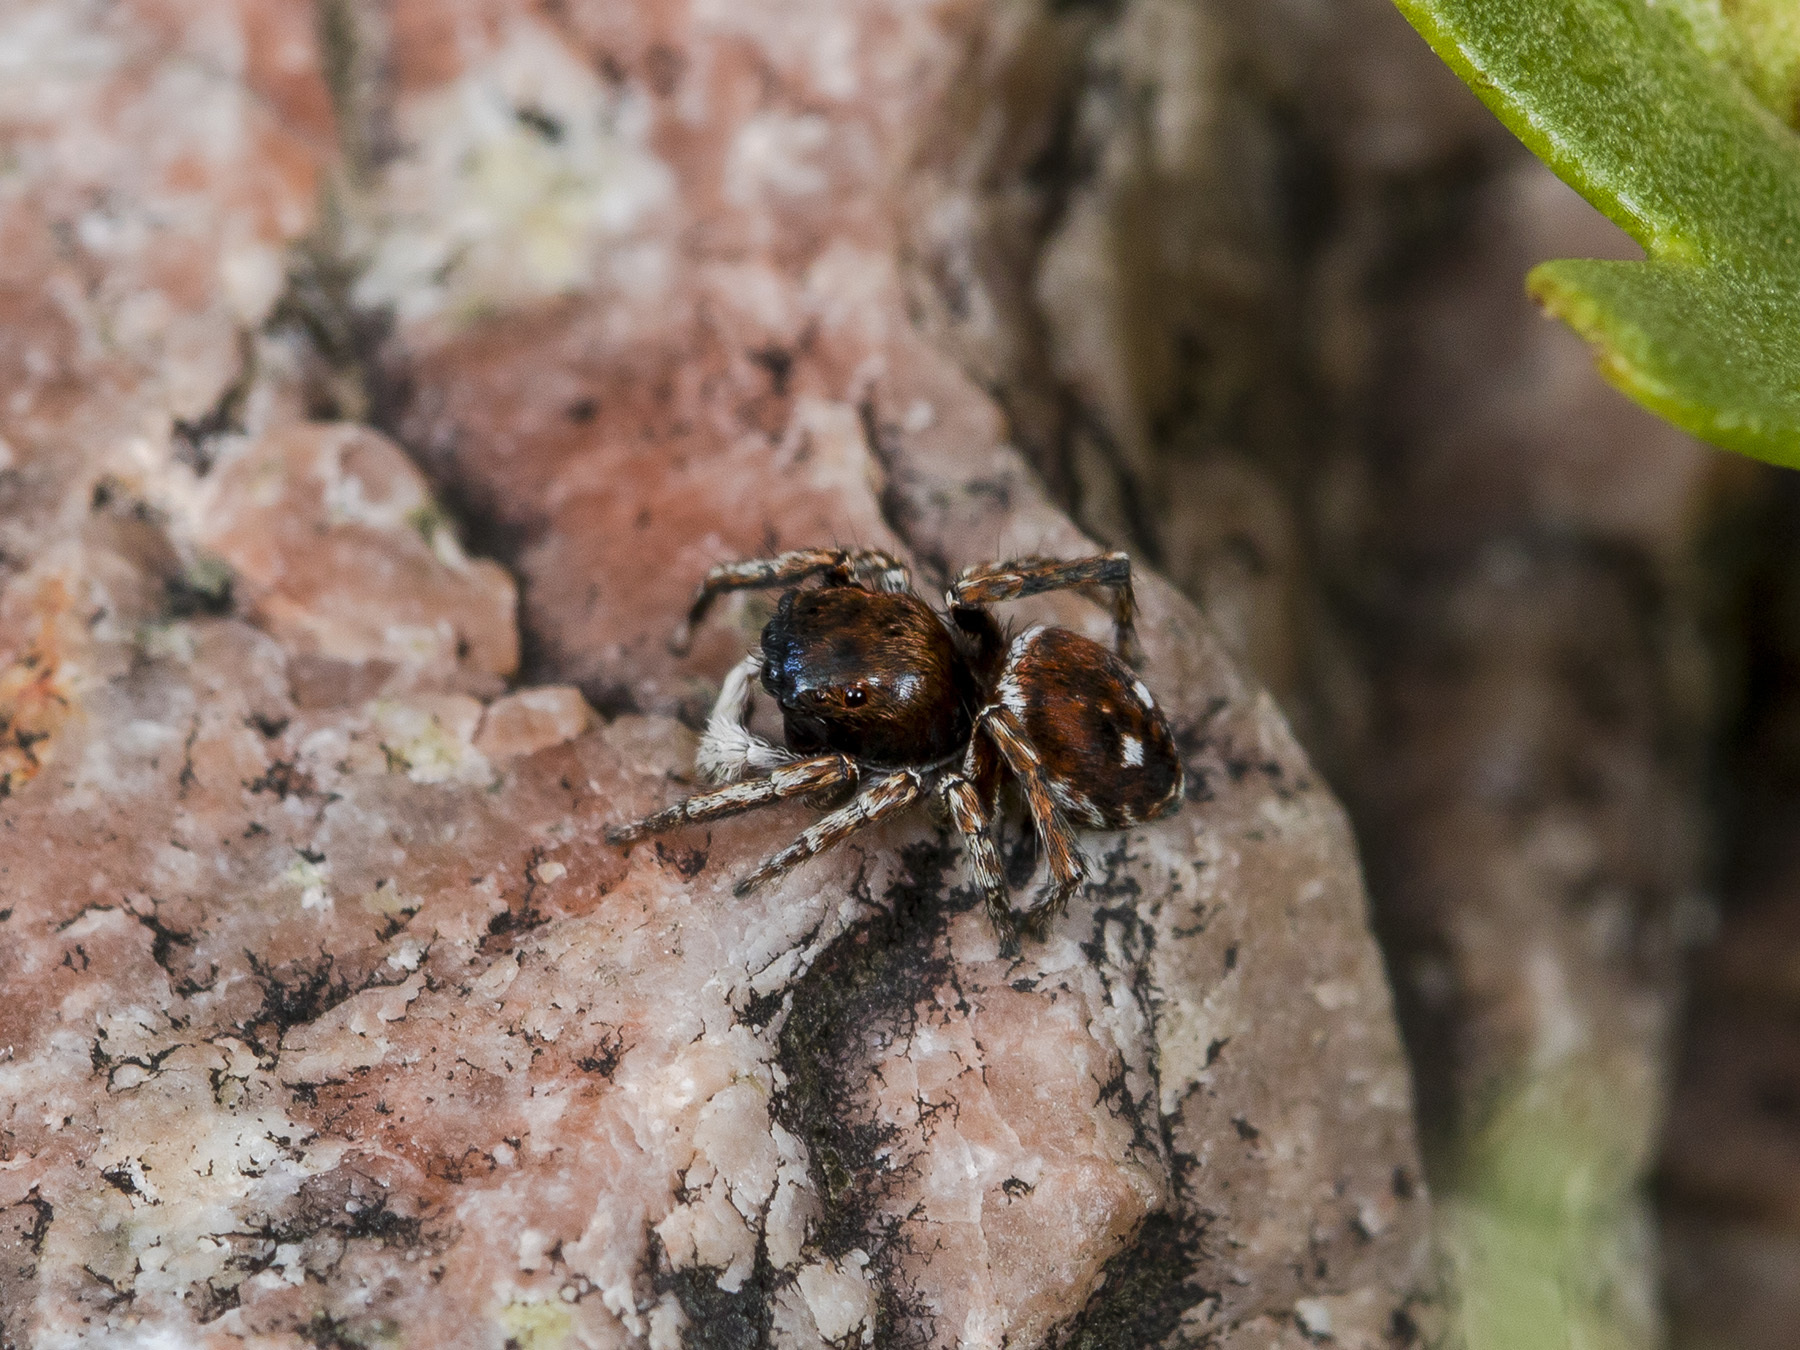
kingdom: Animalia
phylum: Arthropoda
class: Arachnida
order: Araneae
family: Salticidae
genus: Attulus
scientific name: Attulus mirandus
